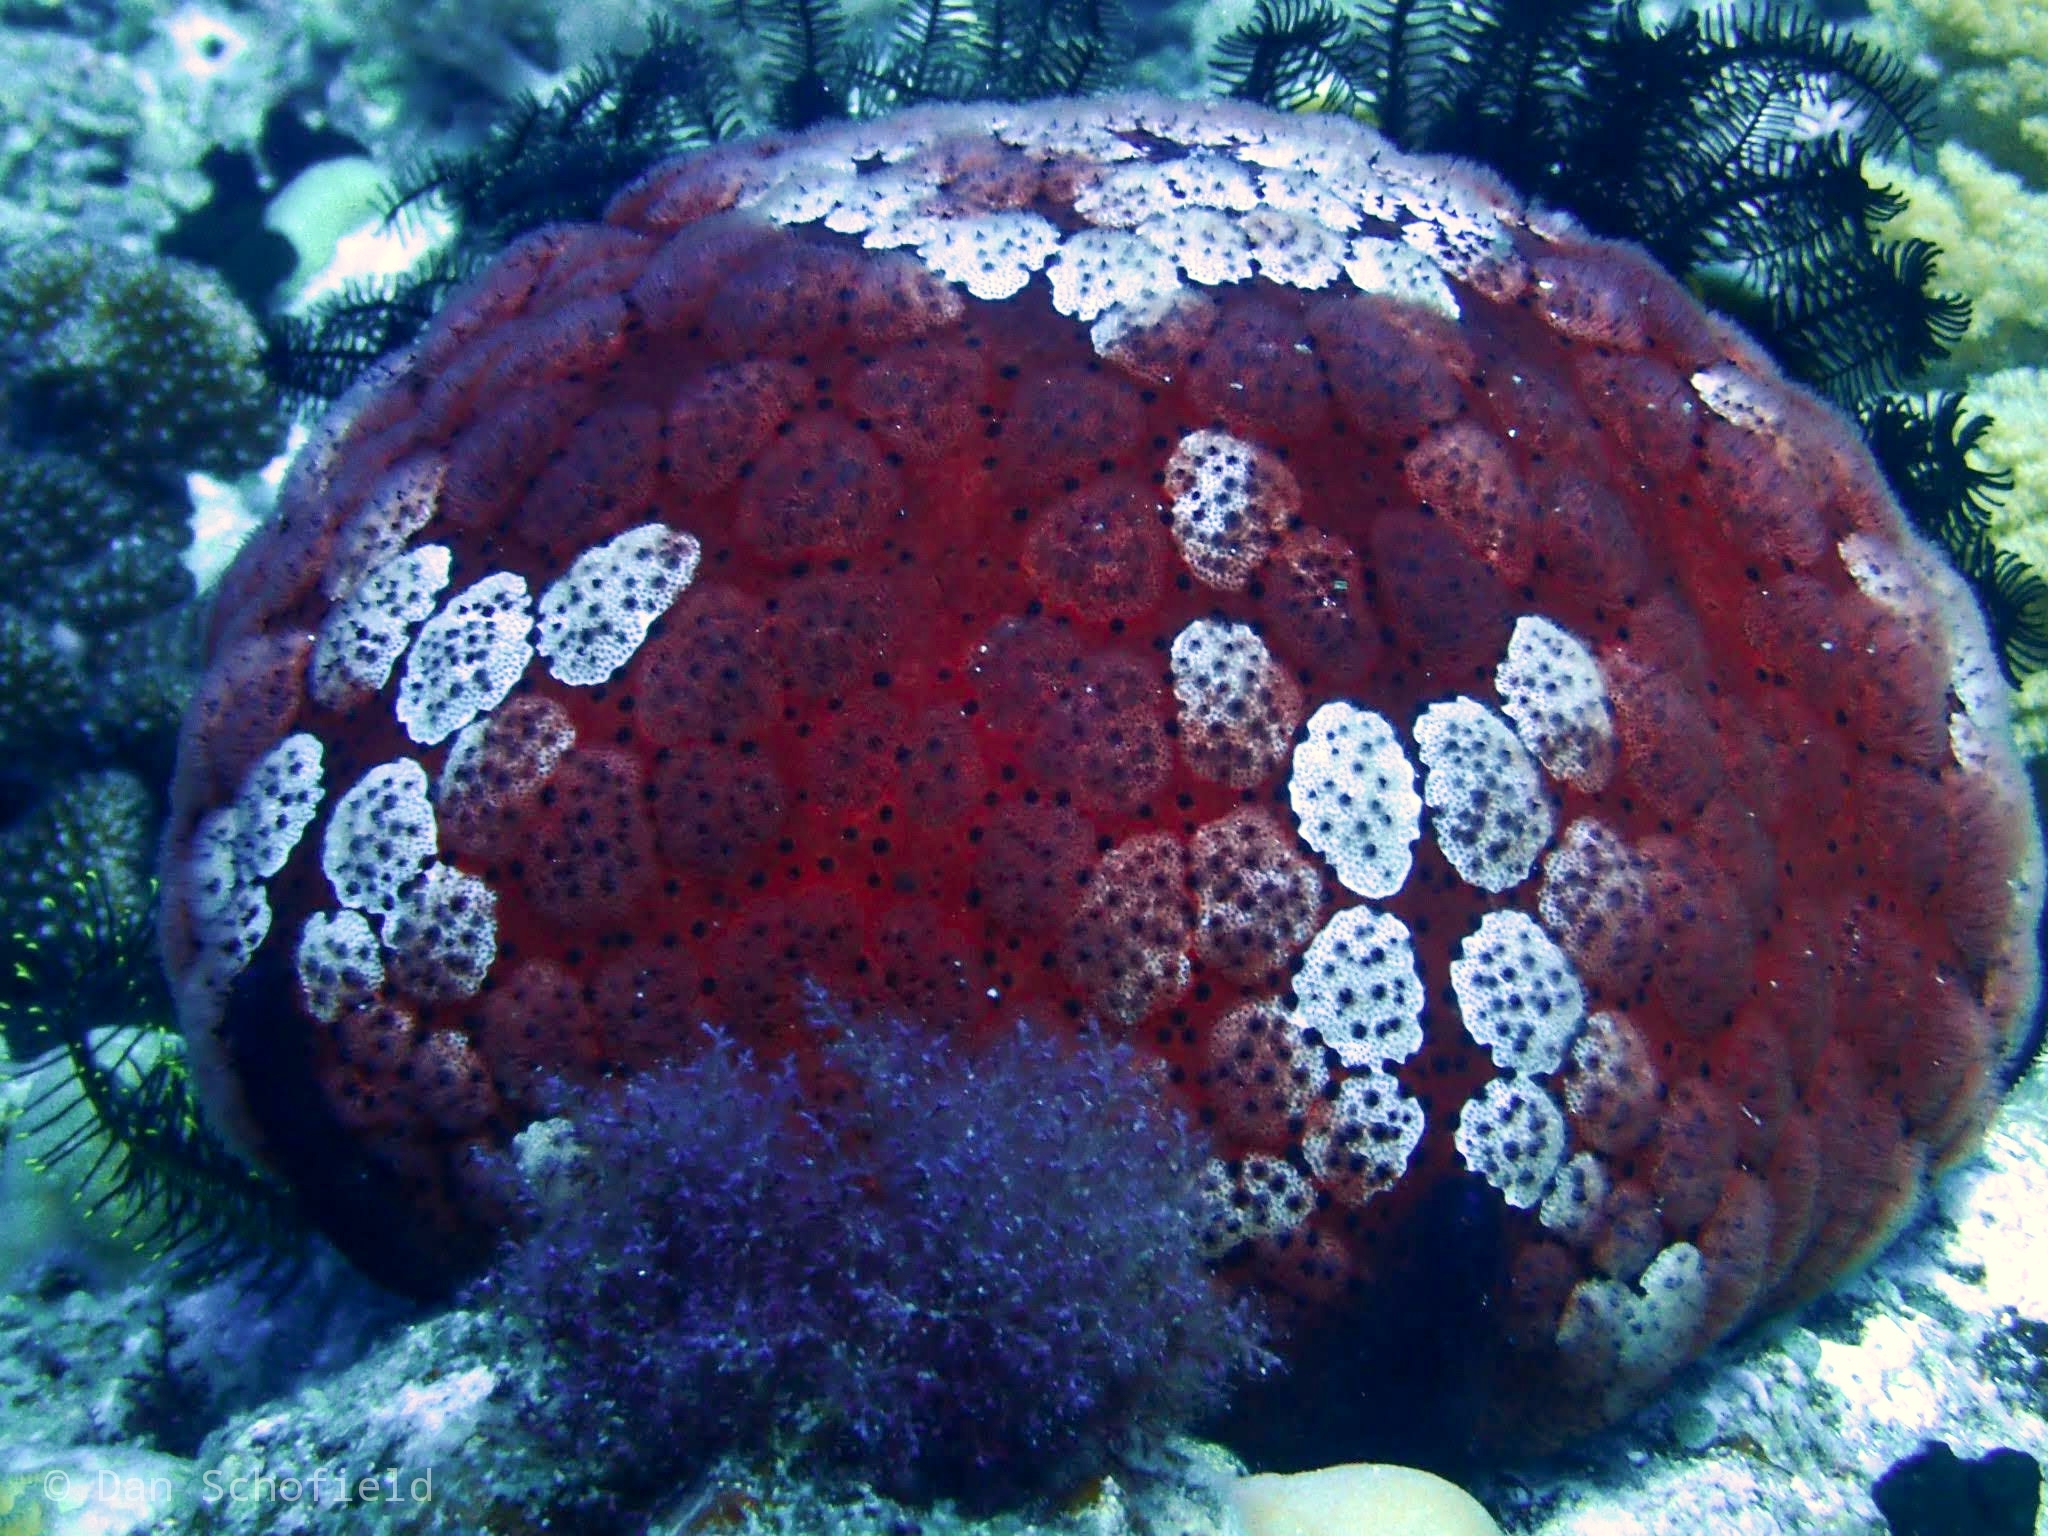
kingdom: Animalia
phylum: Echinodermata
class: Asteroidea
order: Valvatida
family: Oreasteridae
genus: Culcita
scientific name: Culcita novaeguineae
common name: Cushion star
